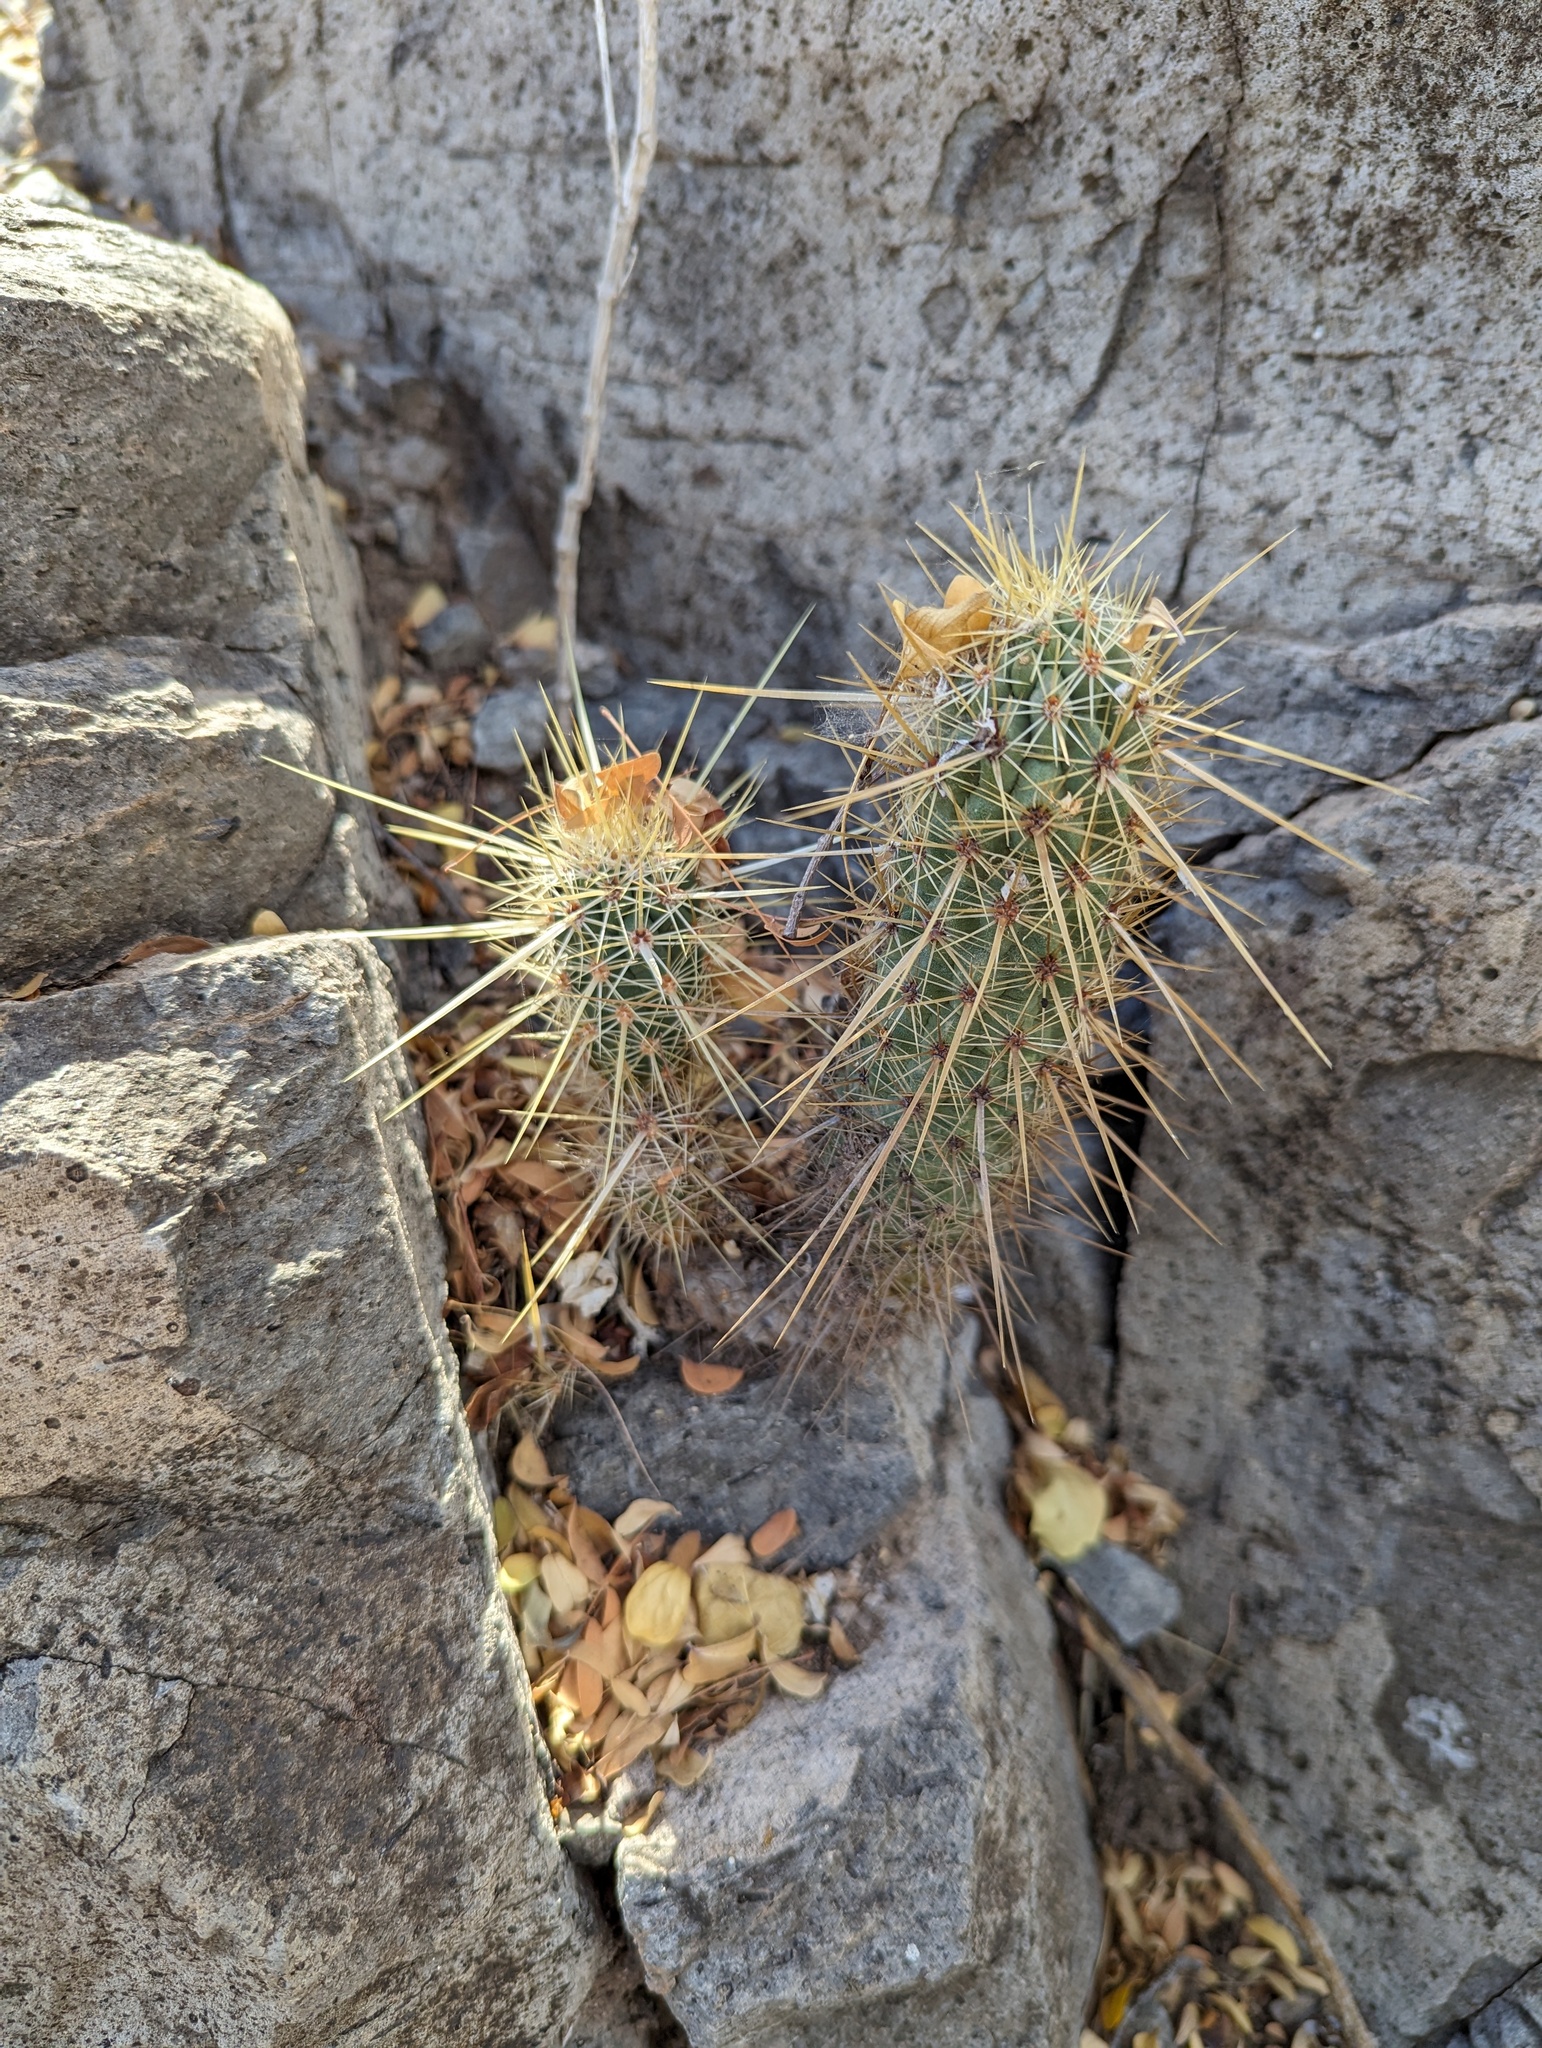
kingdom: Plantae
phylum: Tracheophyta
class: Magnoliopsida
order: Caryophyllales
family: Cactaceae
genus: Echinocereus
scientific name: Echinocereus brandegeei
